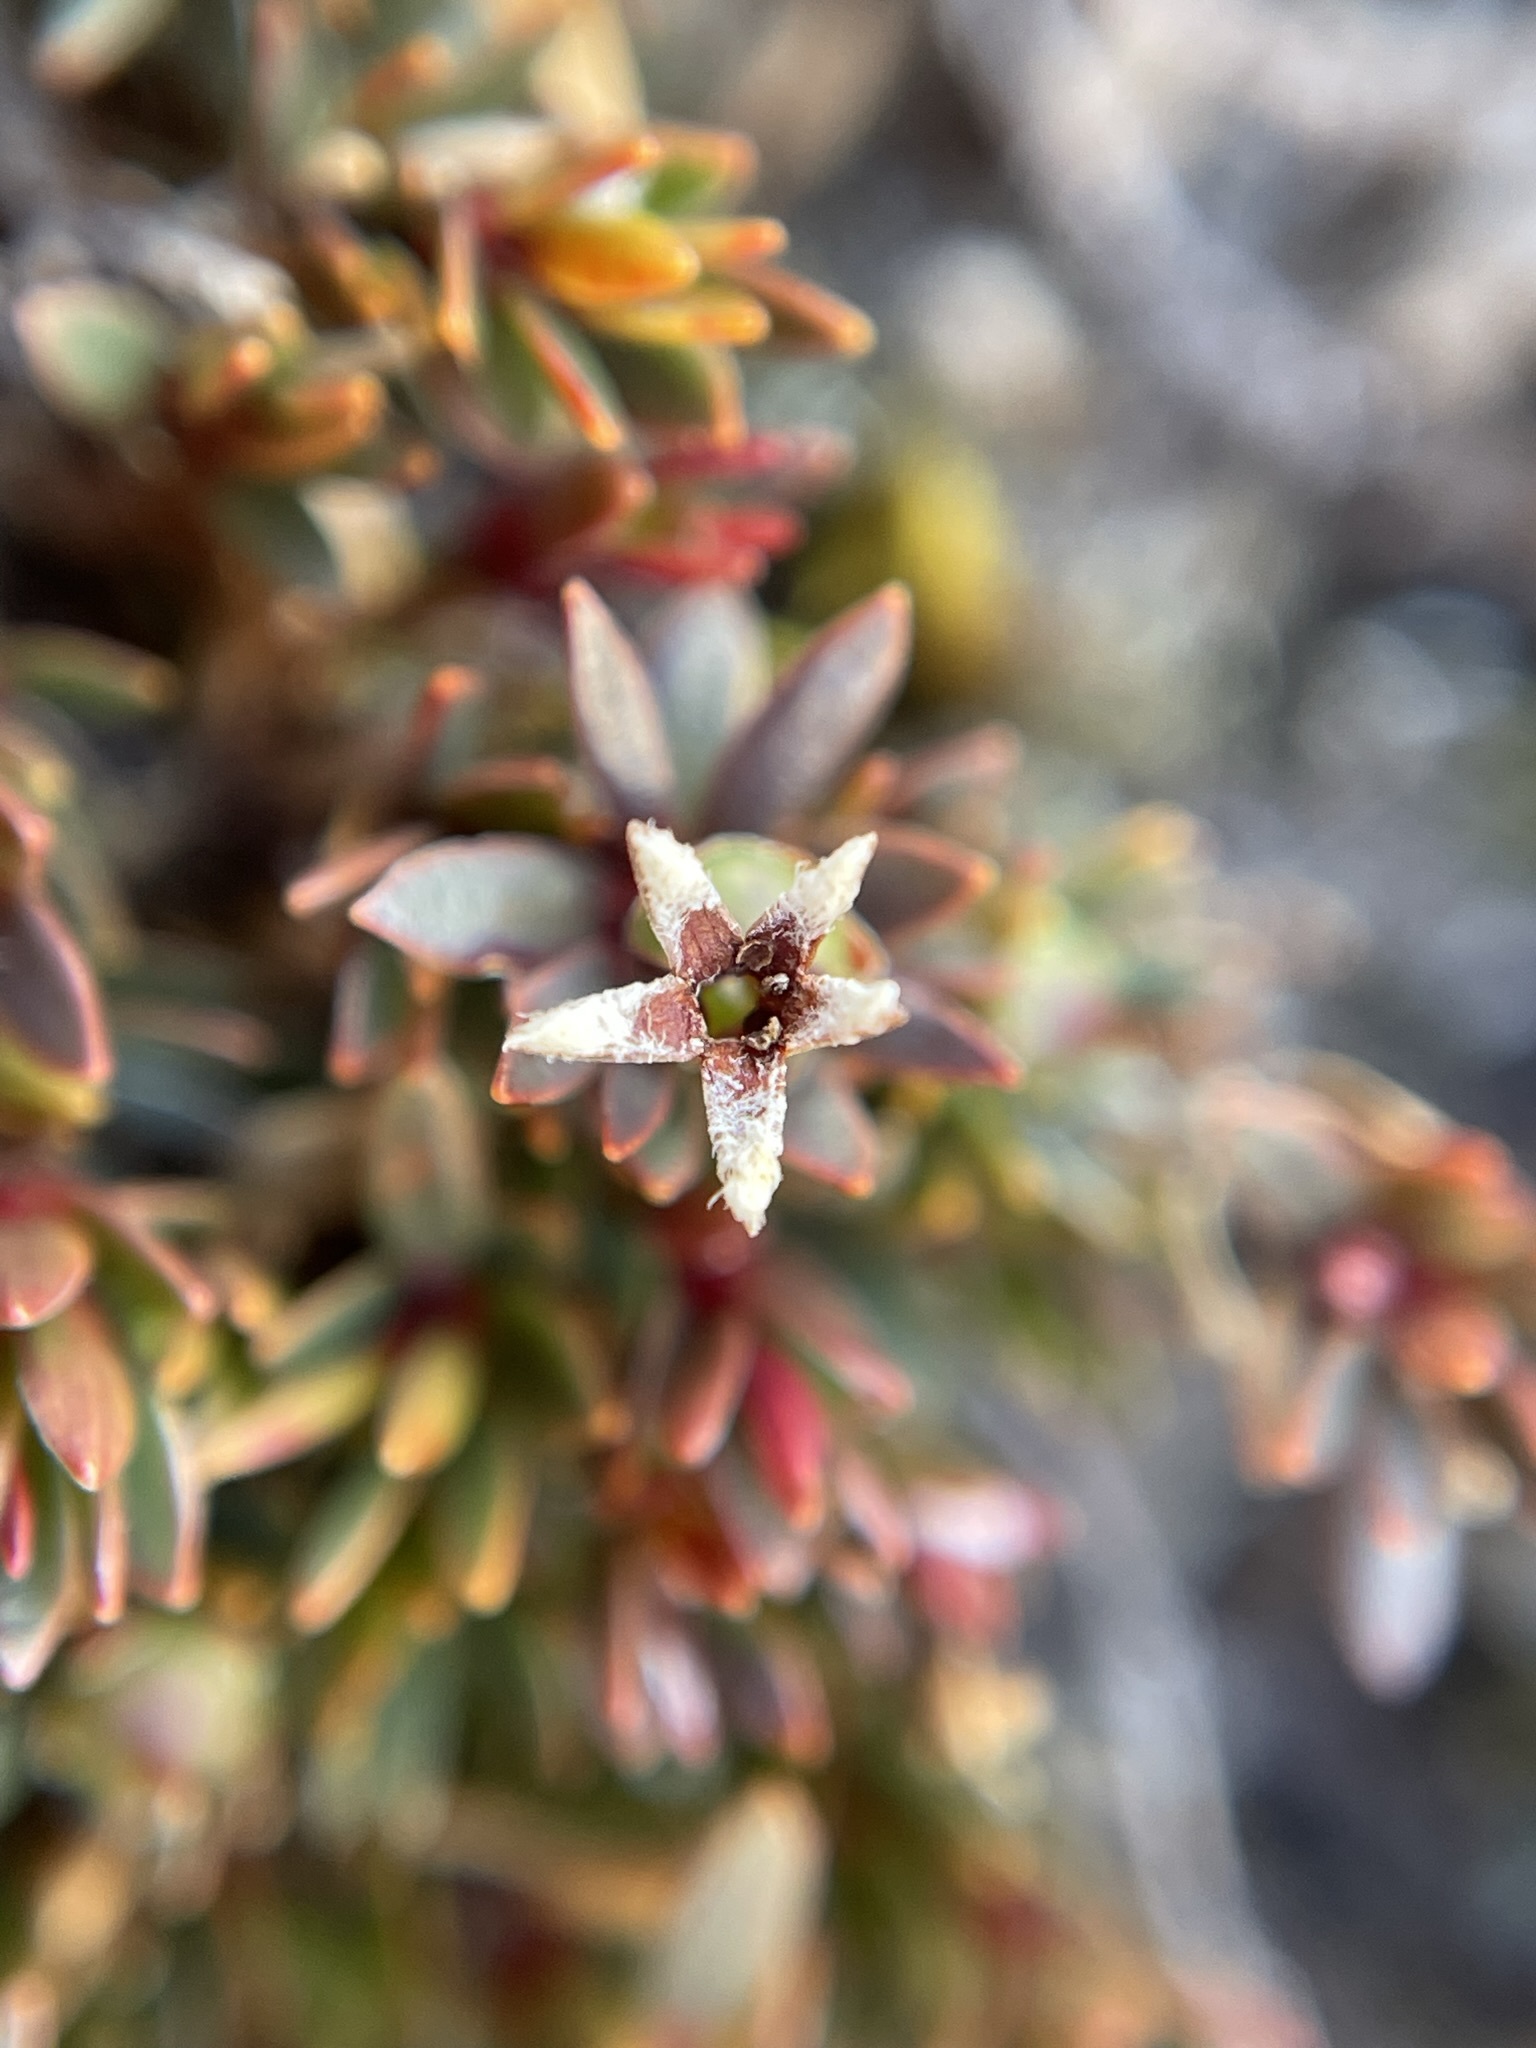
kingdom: Plantae
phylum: Tracheophyta
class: Magnoliopsida
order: Ericales
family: Ericaceae
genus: Pentachondra
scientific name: Pentachondra pumila
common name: Carpet-heath
